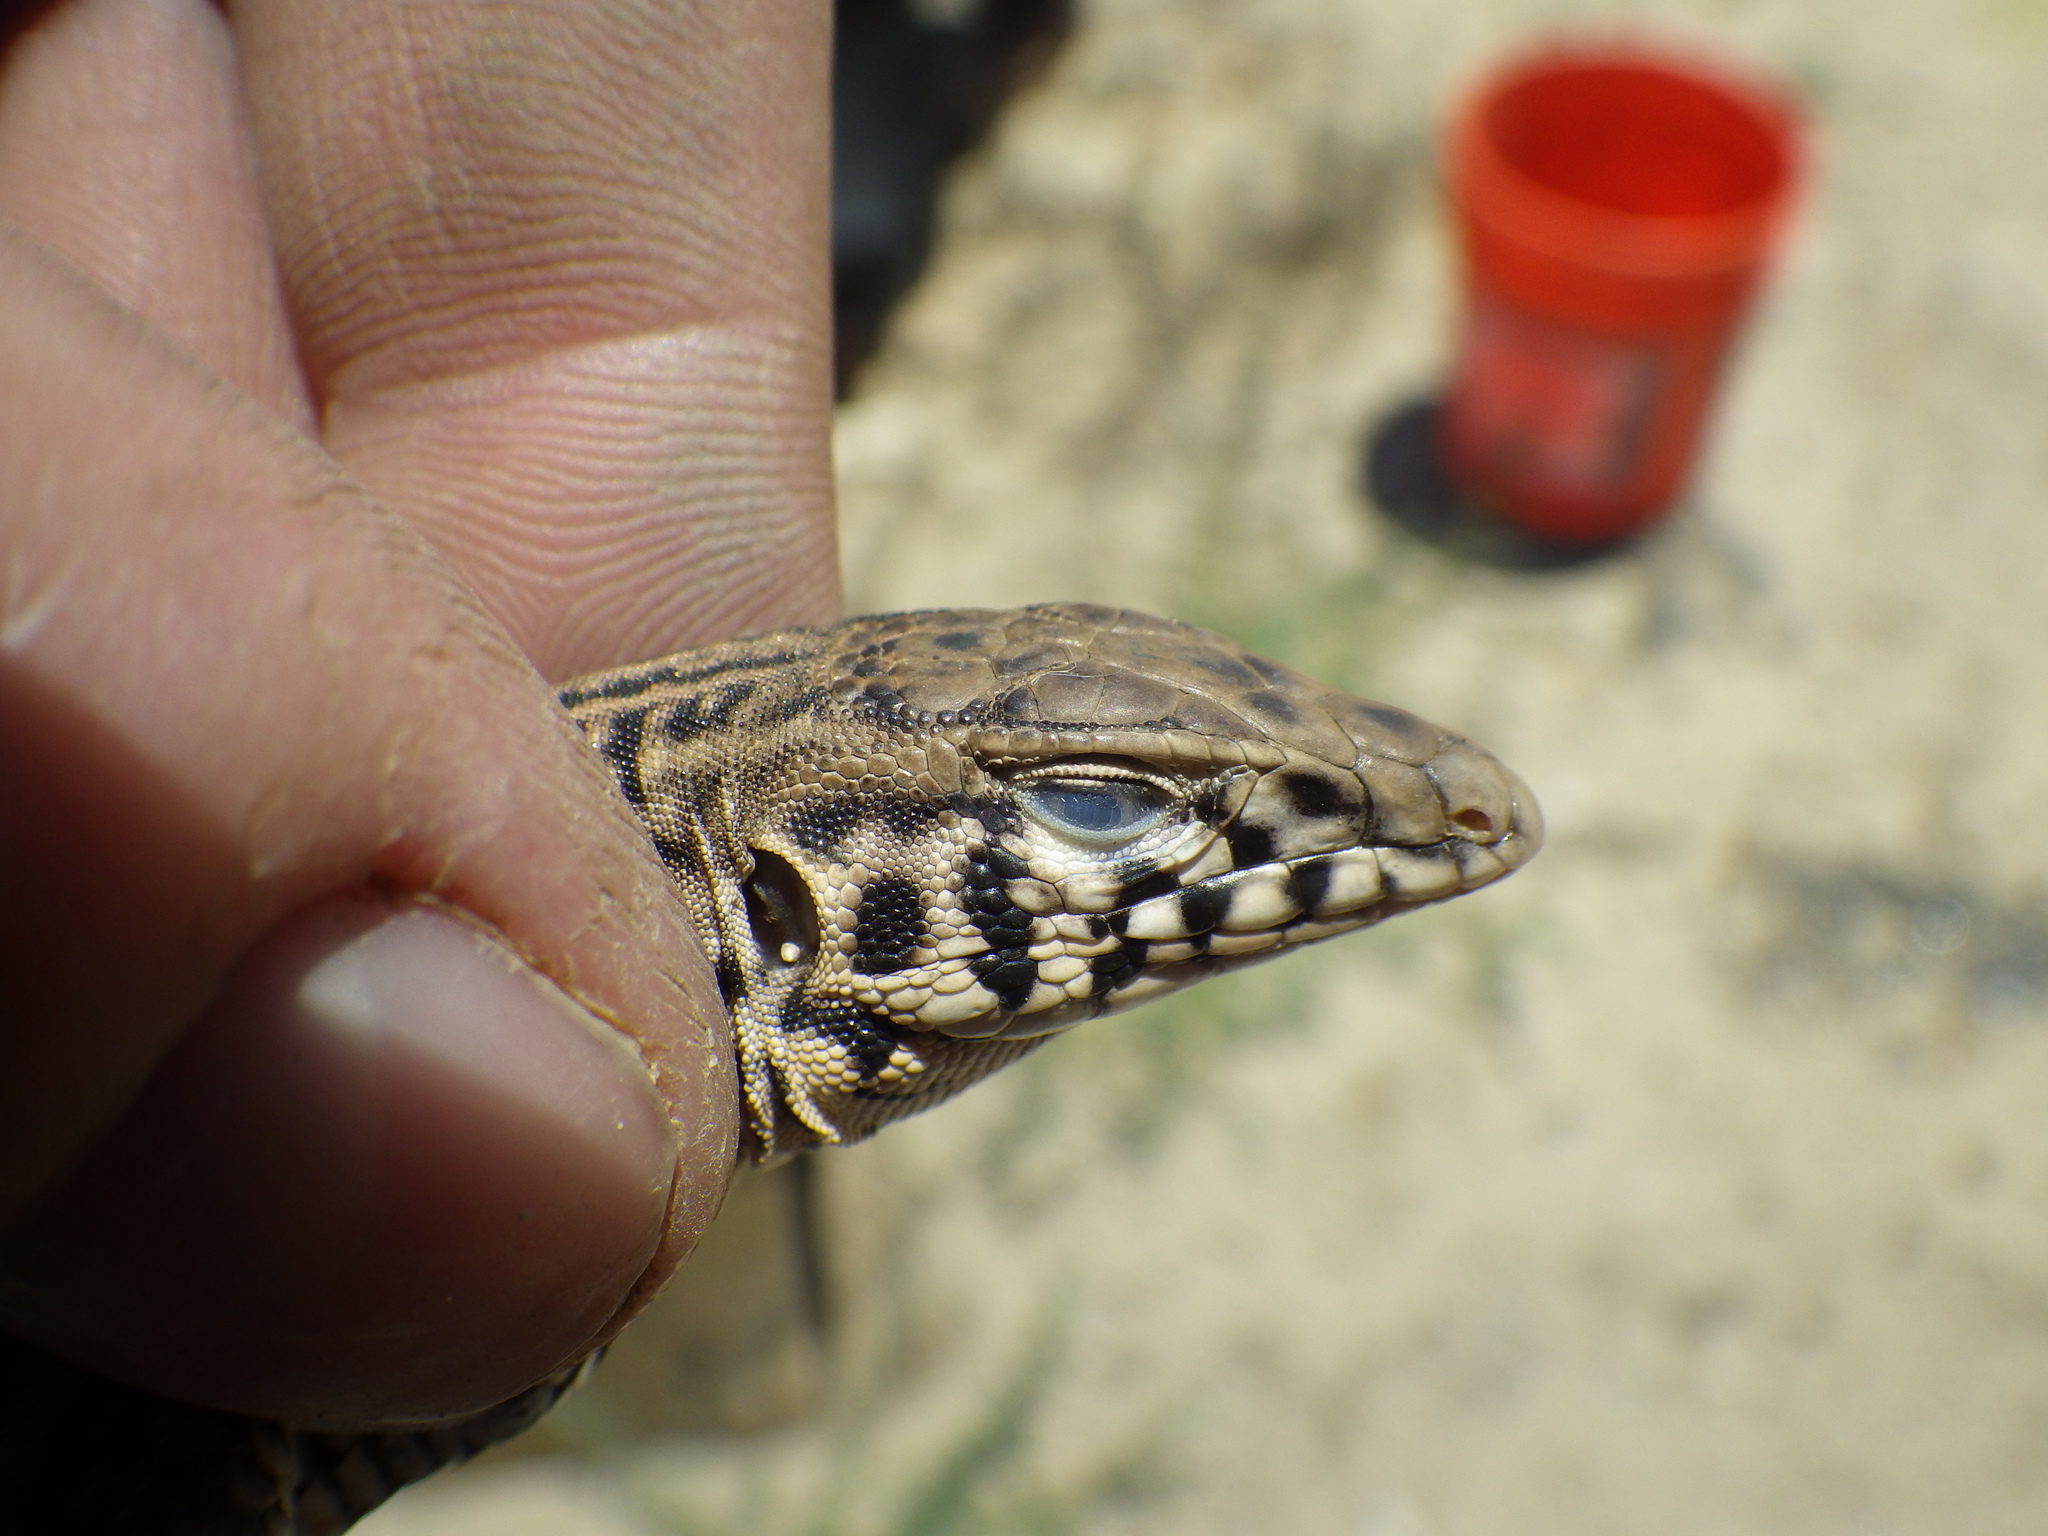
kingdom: Animalia
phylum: Chordata
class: Squamata
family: Teiidae
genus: Aspidoscelis
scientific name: Aspidoscelis tigris
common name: Tiger whiptail
